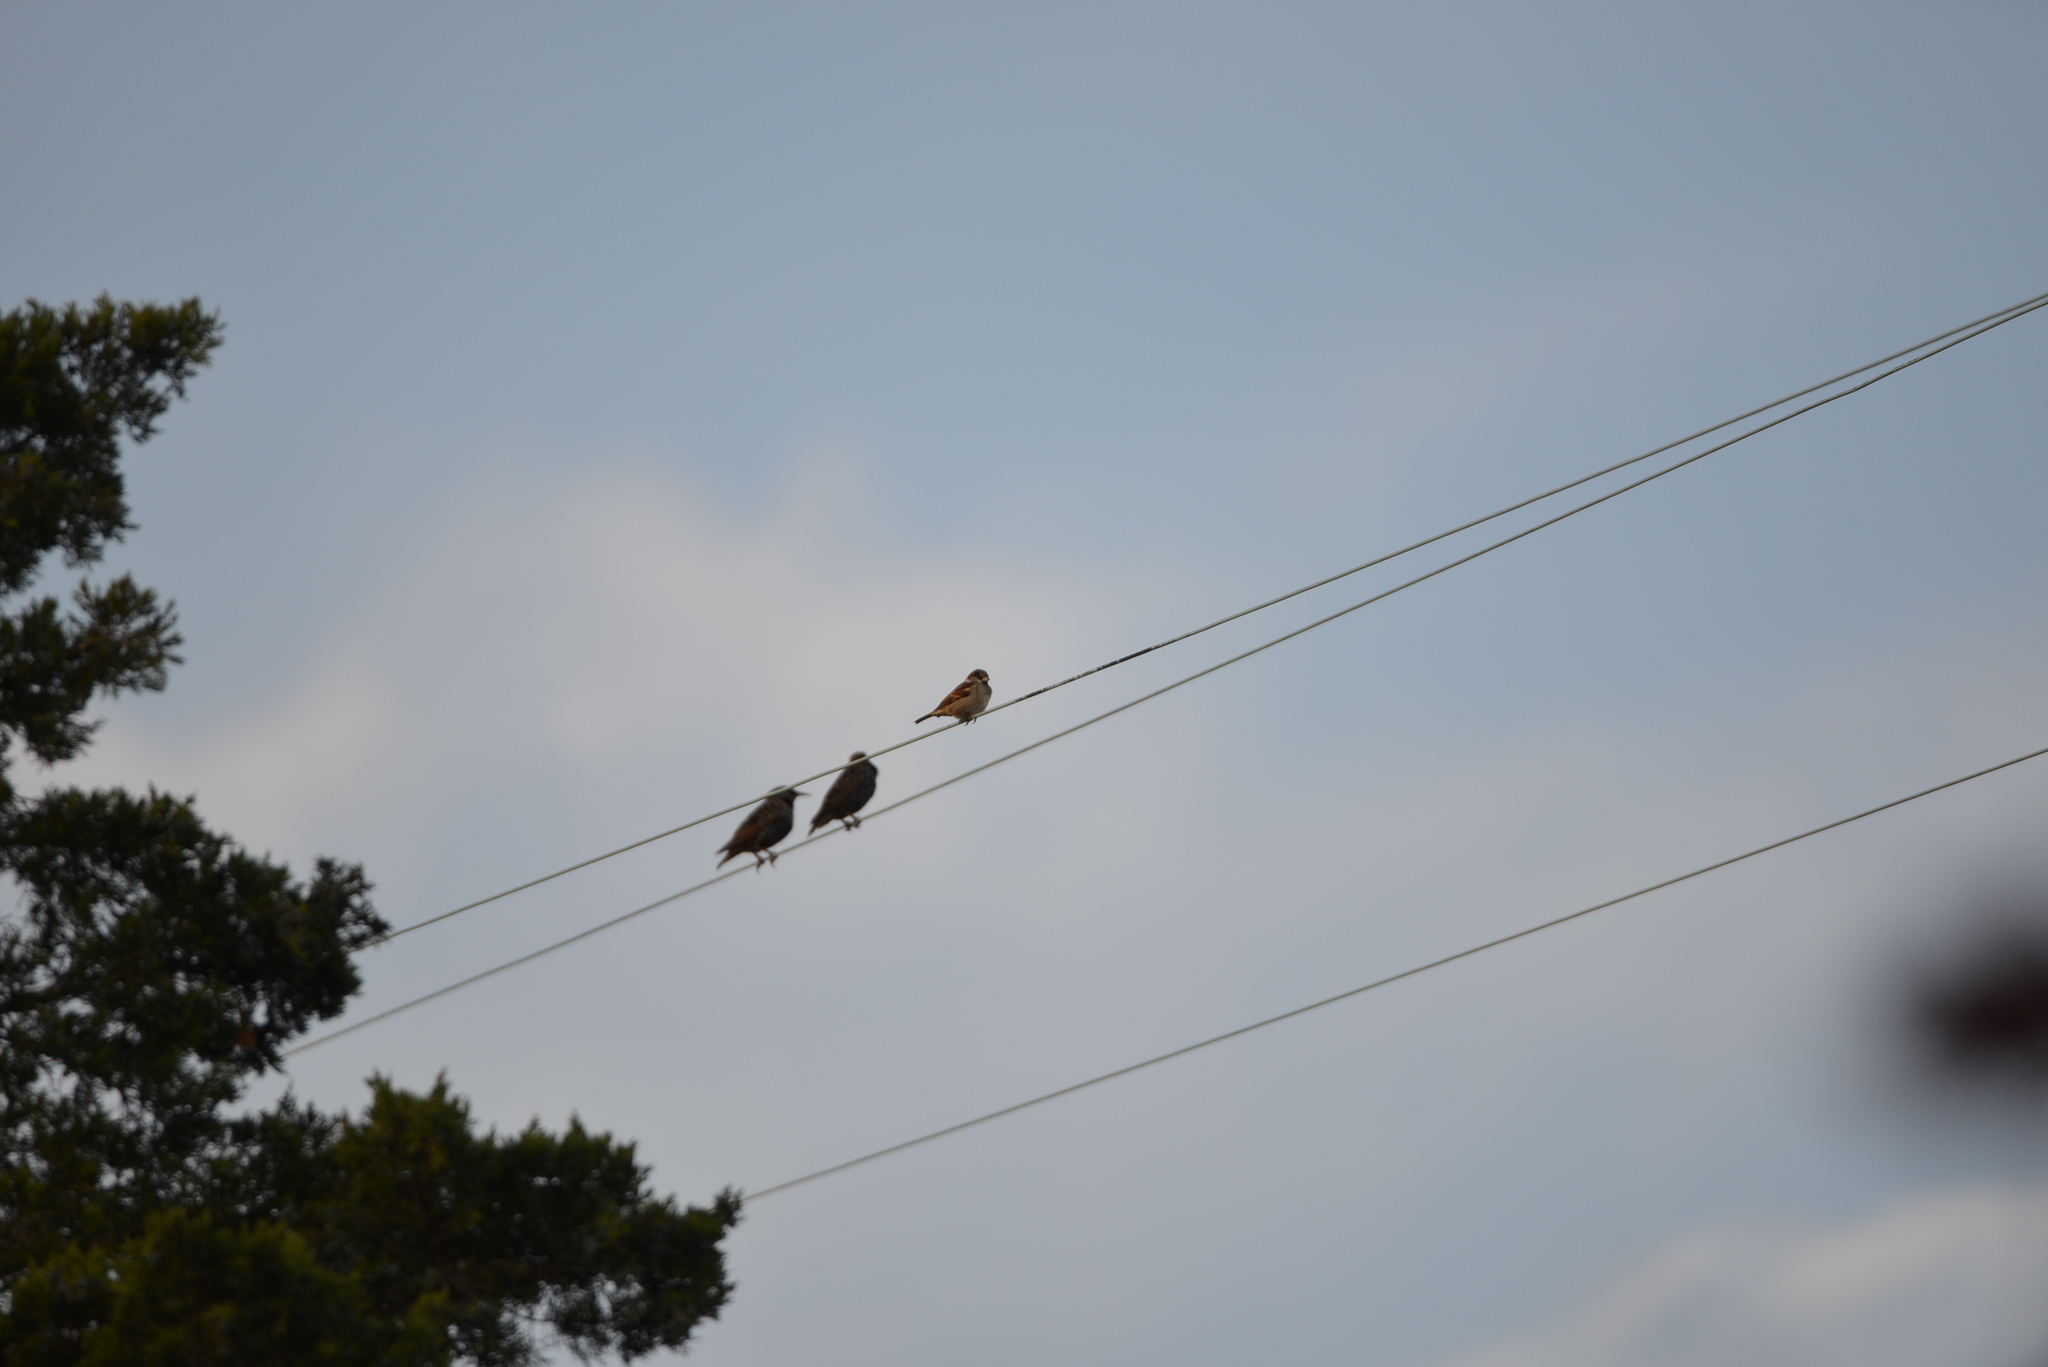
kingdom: Animalia
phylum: Chordata
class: Aves
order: Passeriformes
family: Passeridae
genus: Passer
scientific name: Passer domesticus
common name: House sparrow
